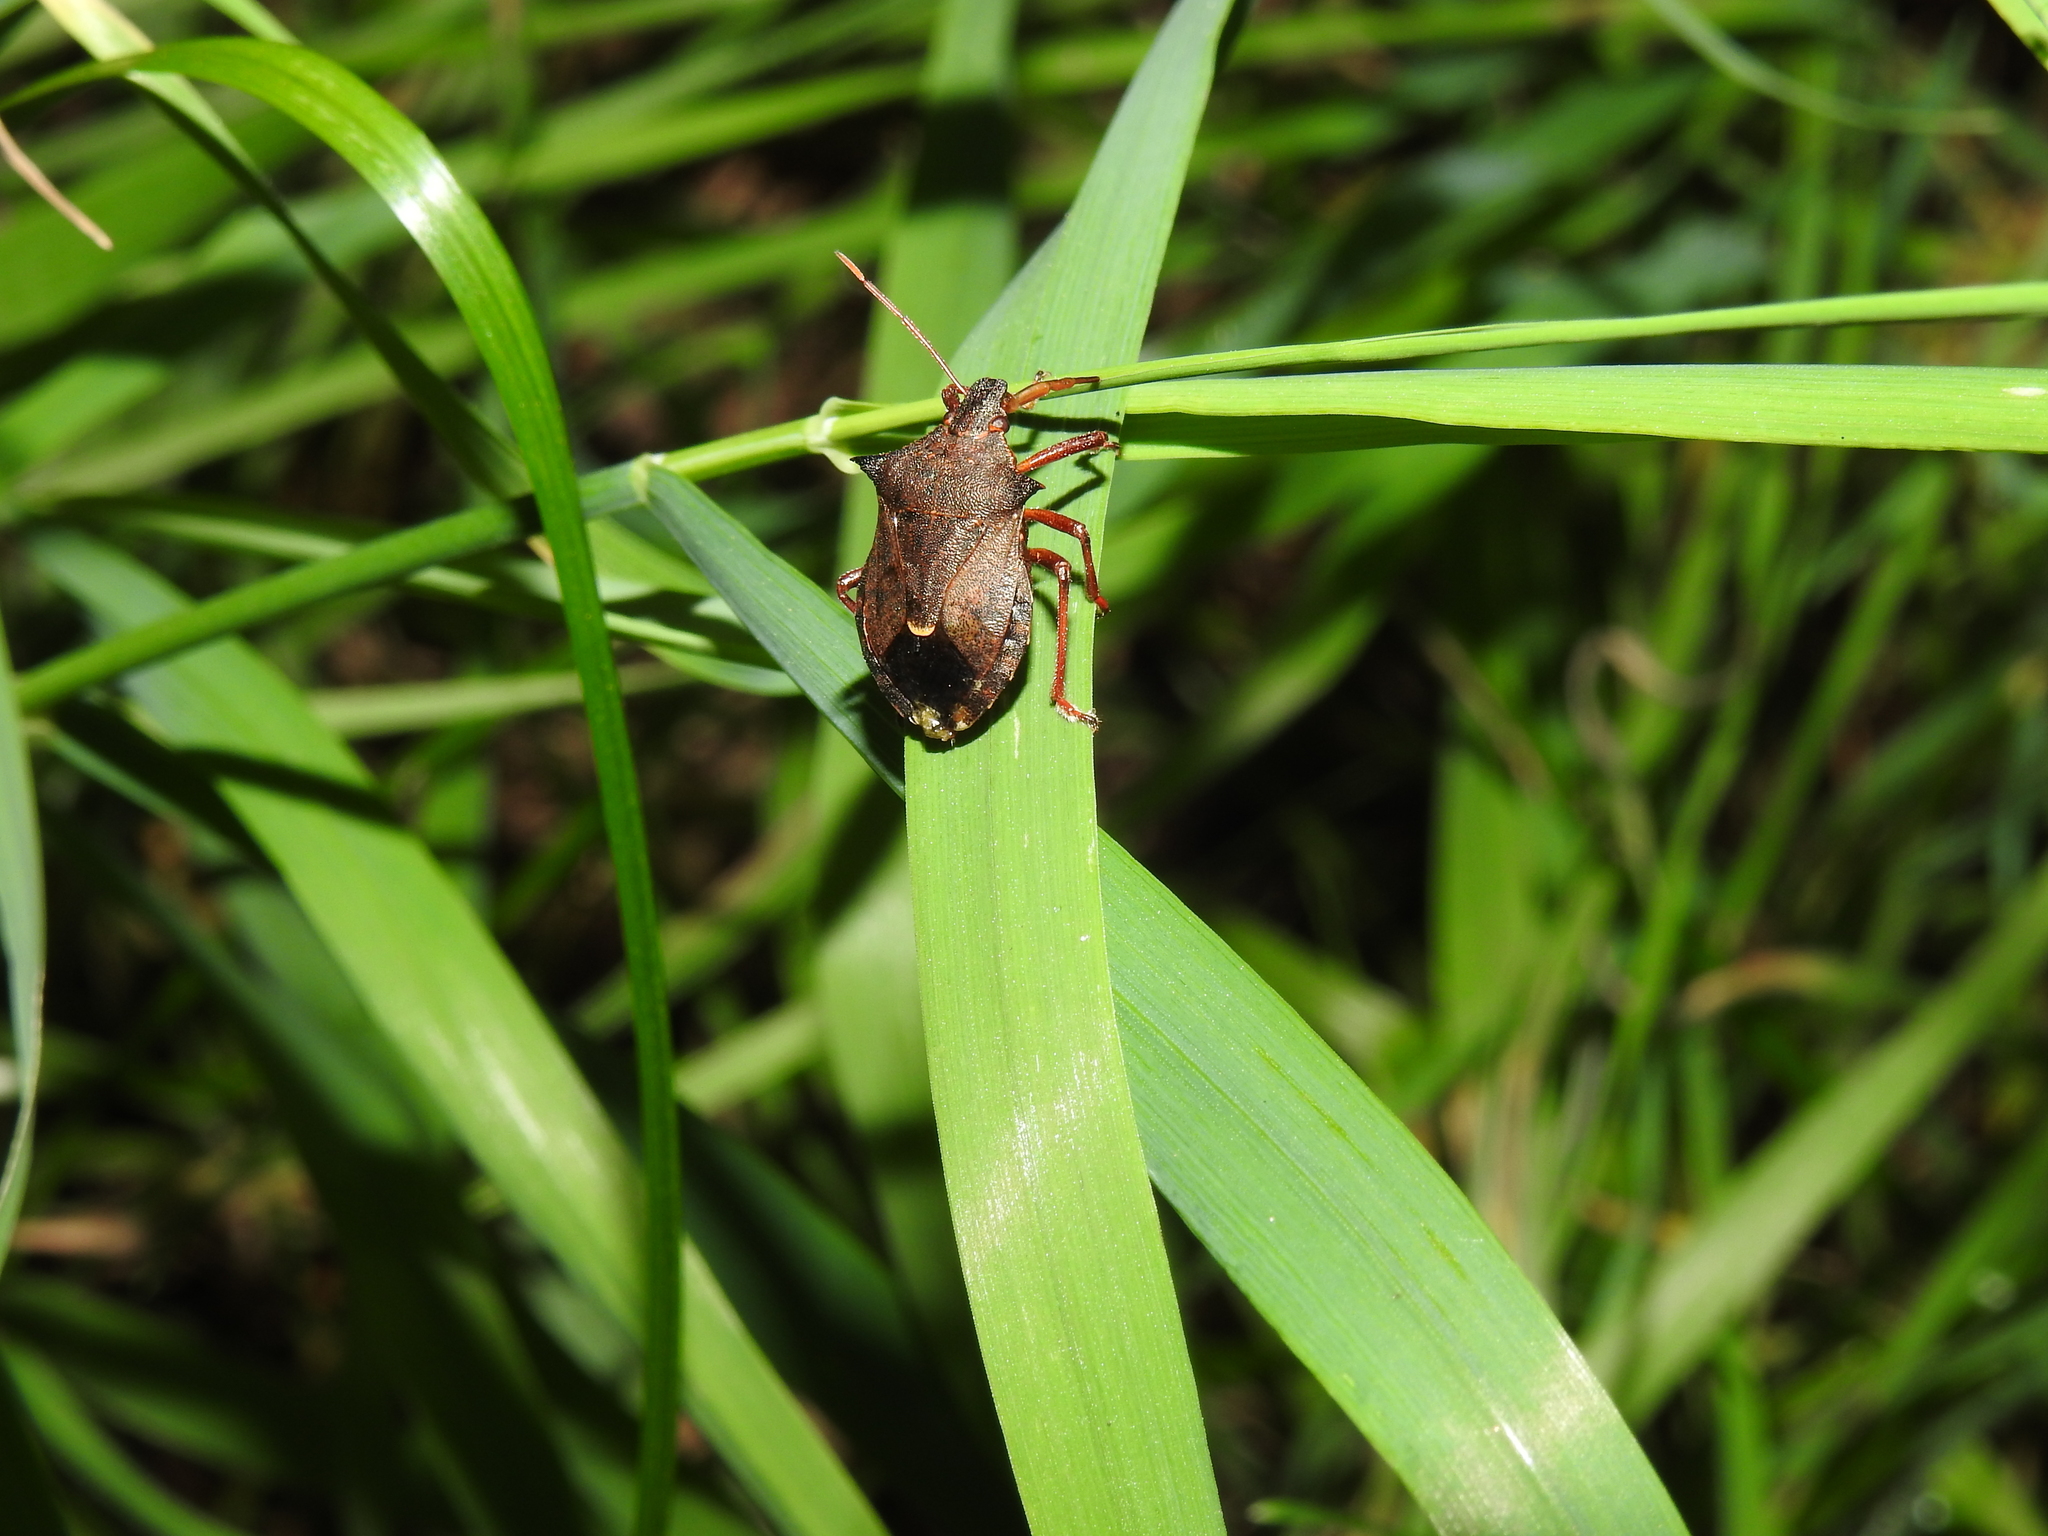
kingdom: Animalia
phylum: Arthropoda
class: Insecta
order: Hemiptera
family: Pentatomidae
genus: Picromerus
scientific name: Picromerus bidens
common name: Spiked shieldbug
